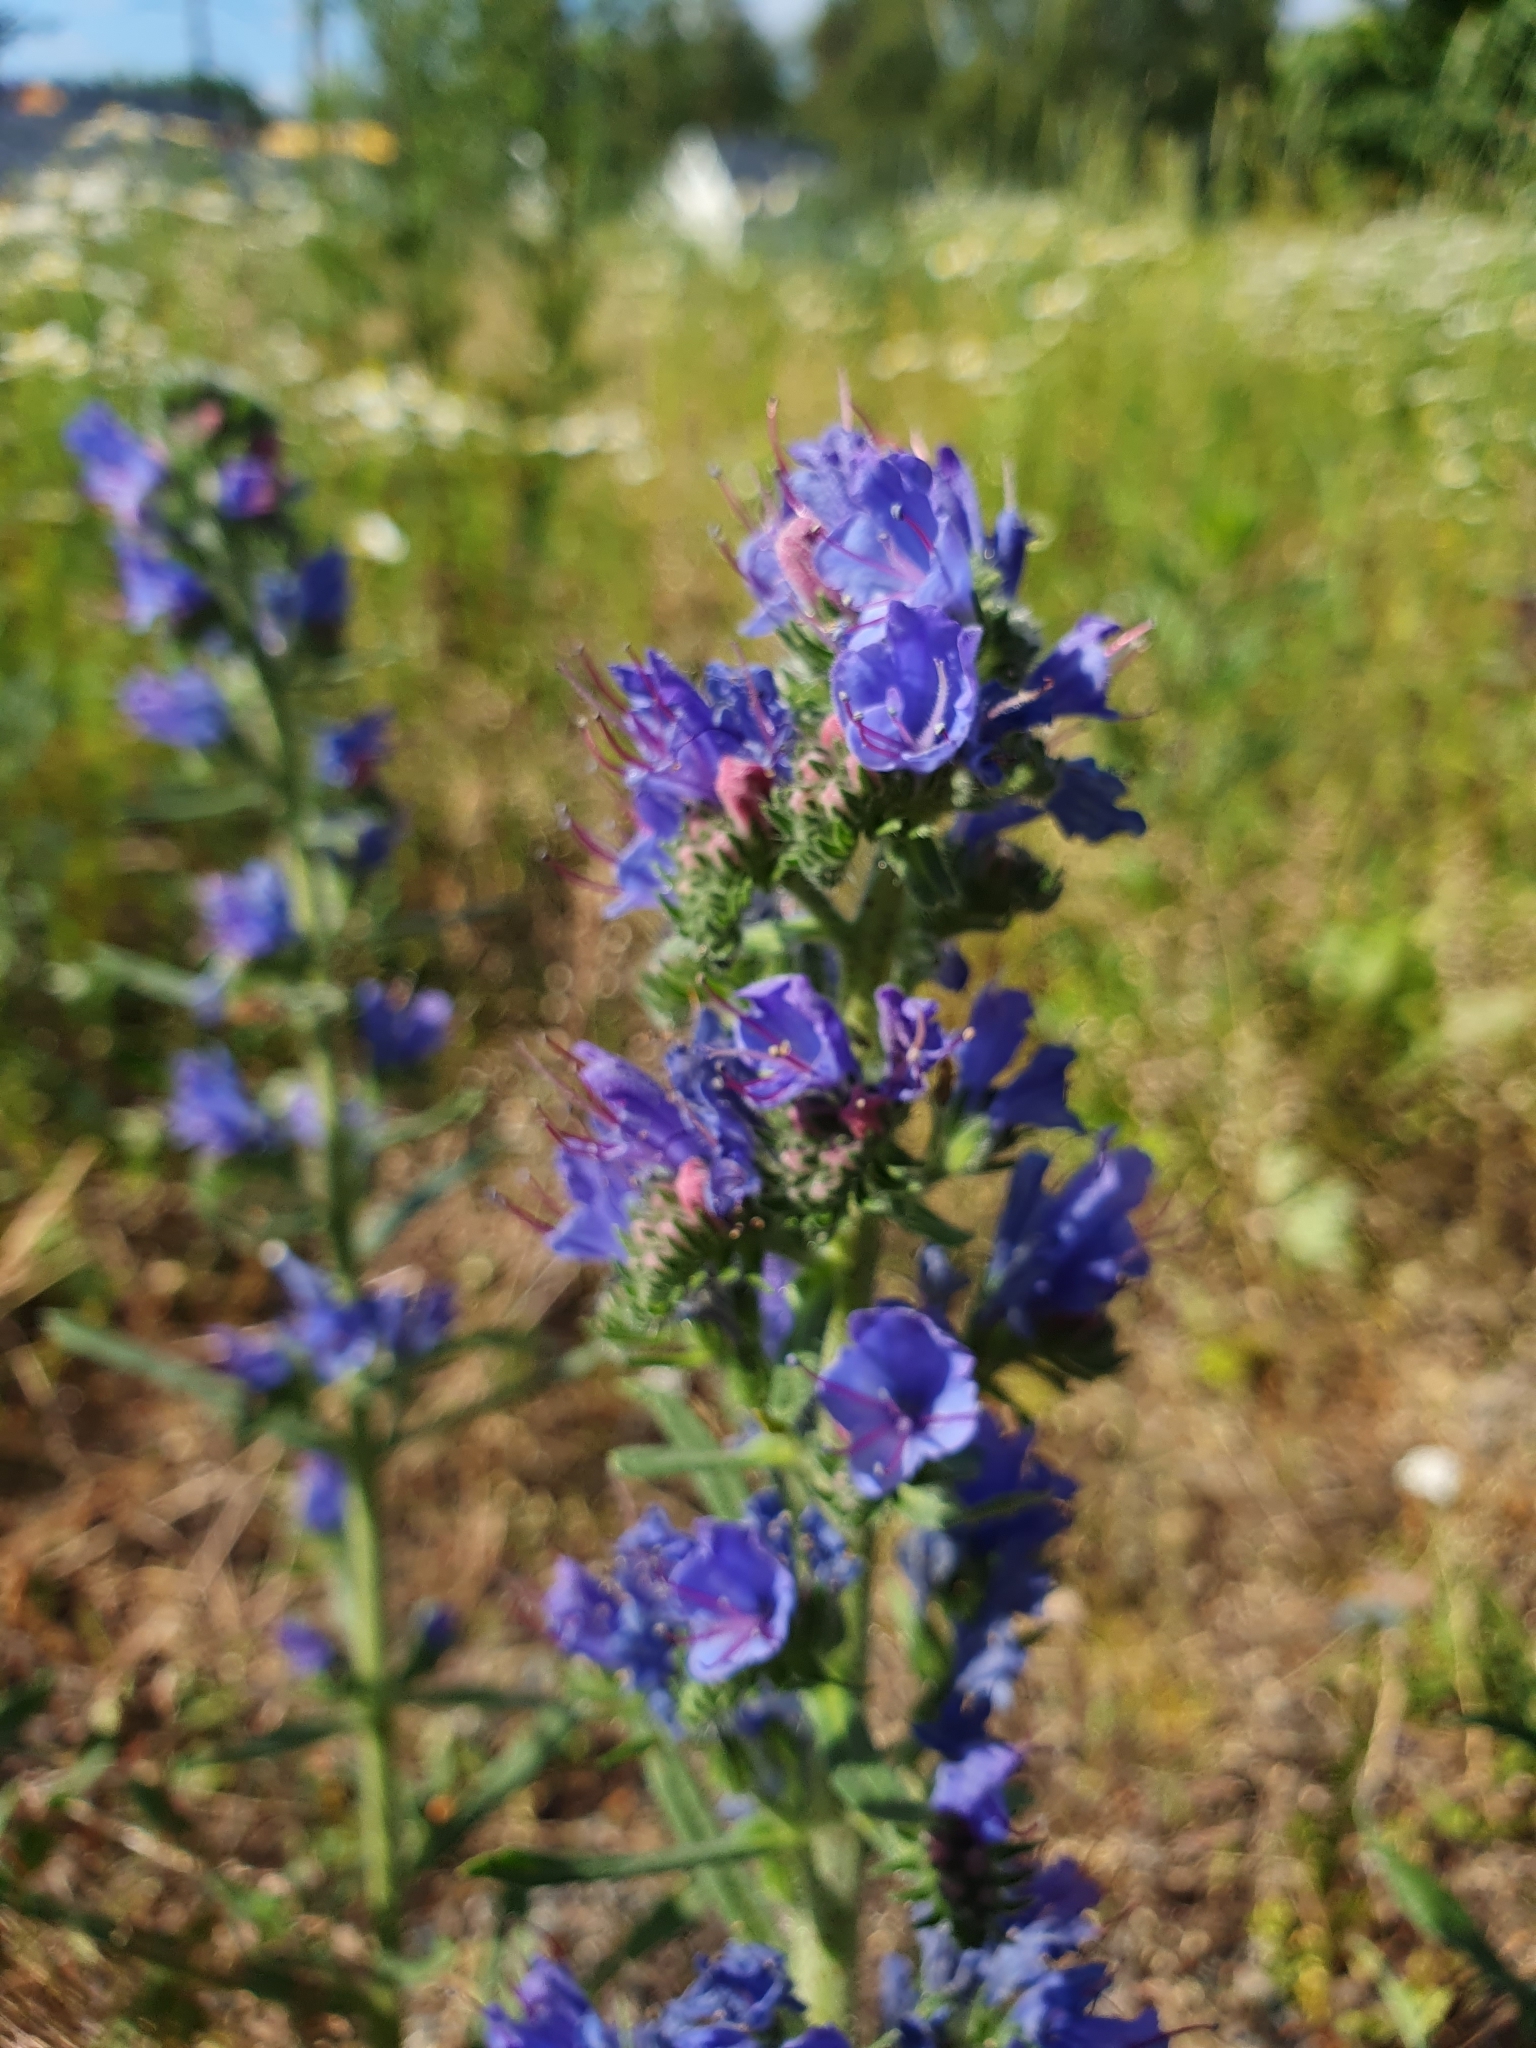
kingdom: Plantae
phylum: Tracheophyta
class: Magnoliopsida
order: Boraginales
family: Boraginaceae
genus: Echium
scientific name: Echium vulgare
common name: Common viper's bugloss
